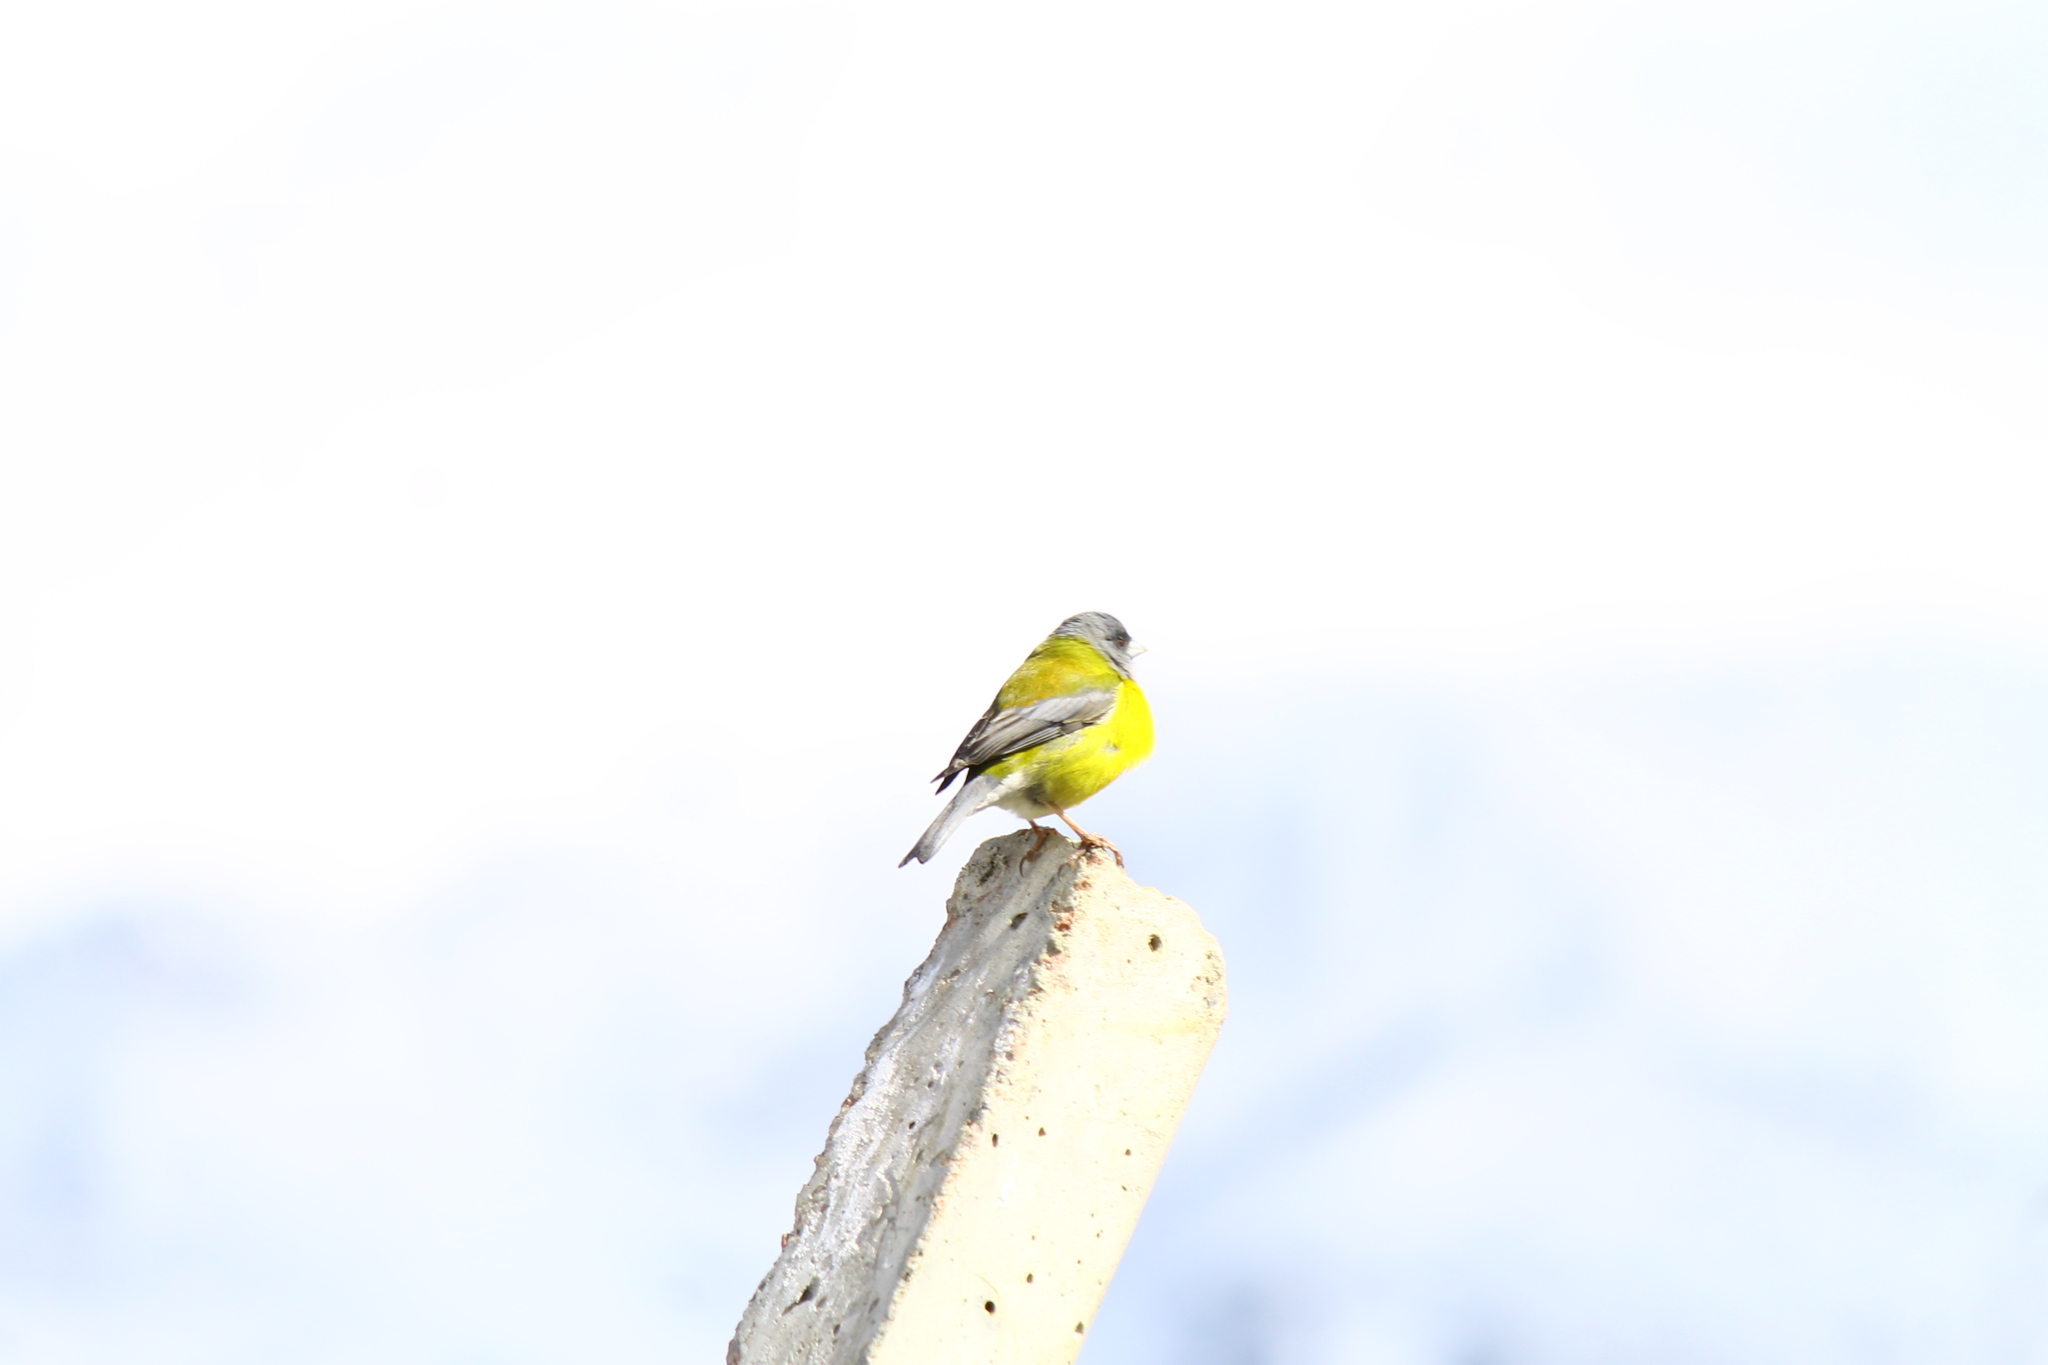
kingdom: Animalia
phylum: Chordata
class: Aves
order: Passeriformes
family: Thraupidae
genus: Phrygilus
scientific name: Phrygilus patagonicus
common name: Patagonian sierra finch
